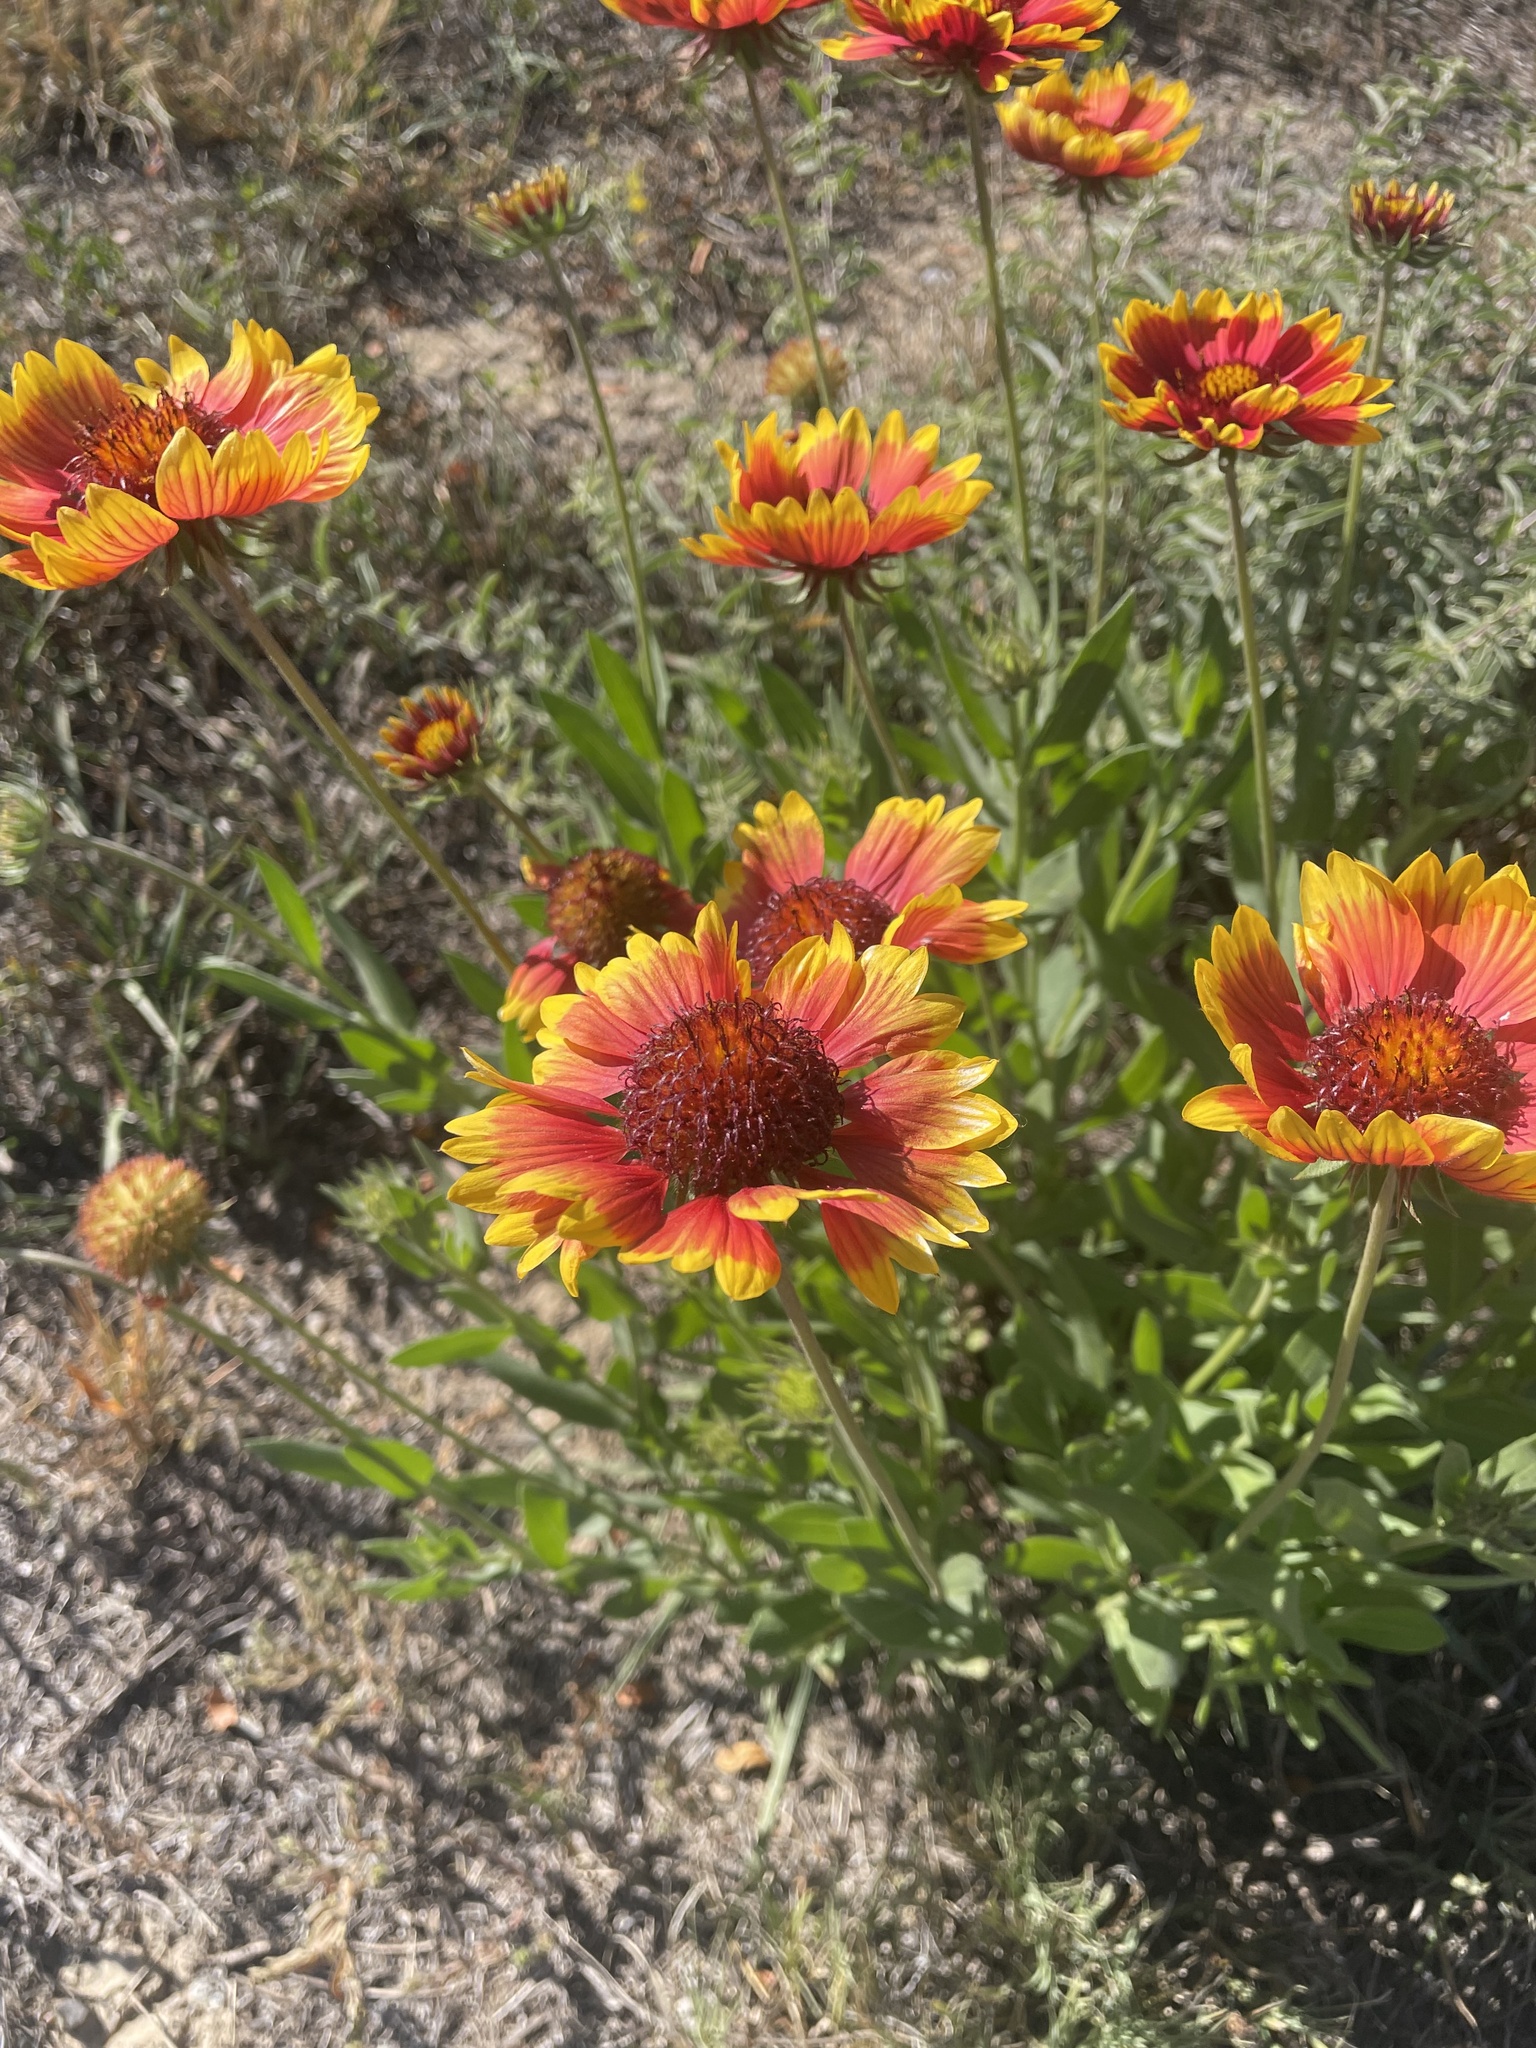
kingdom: Plantae
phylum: Tracheophyta
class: Magnoliopsida
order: Asterales
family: Asteraceae
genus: Gaillardia
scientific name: Gaillardia pulchella
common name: Firewheel
